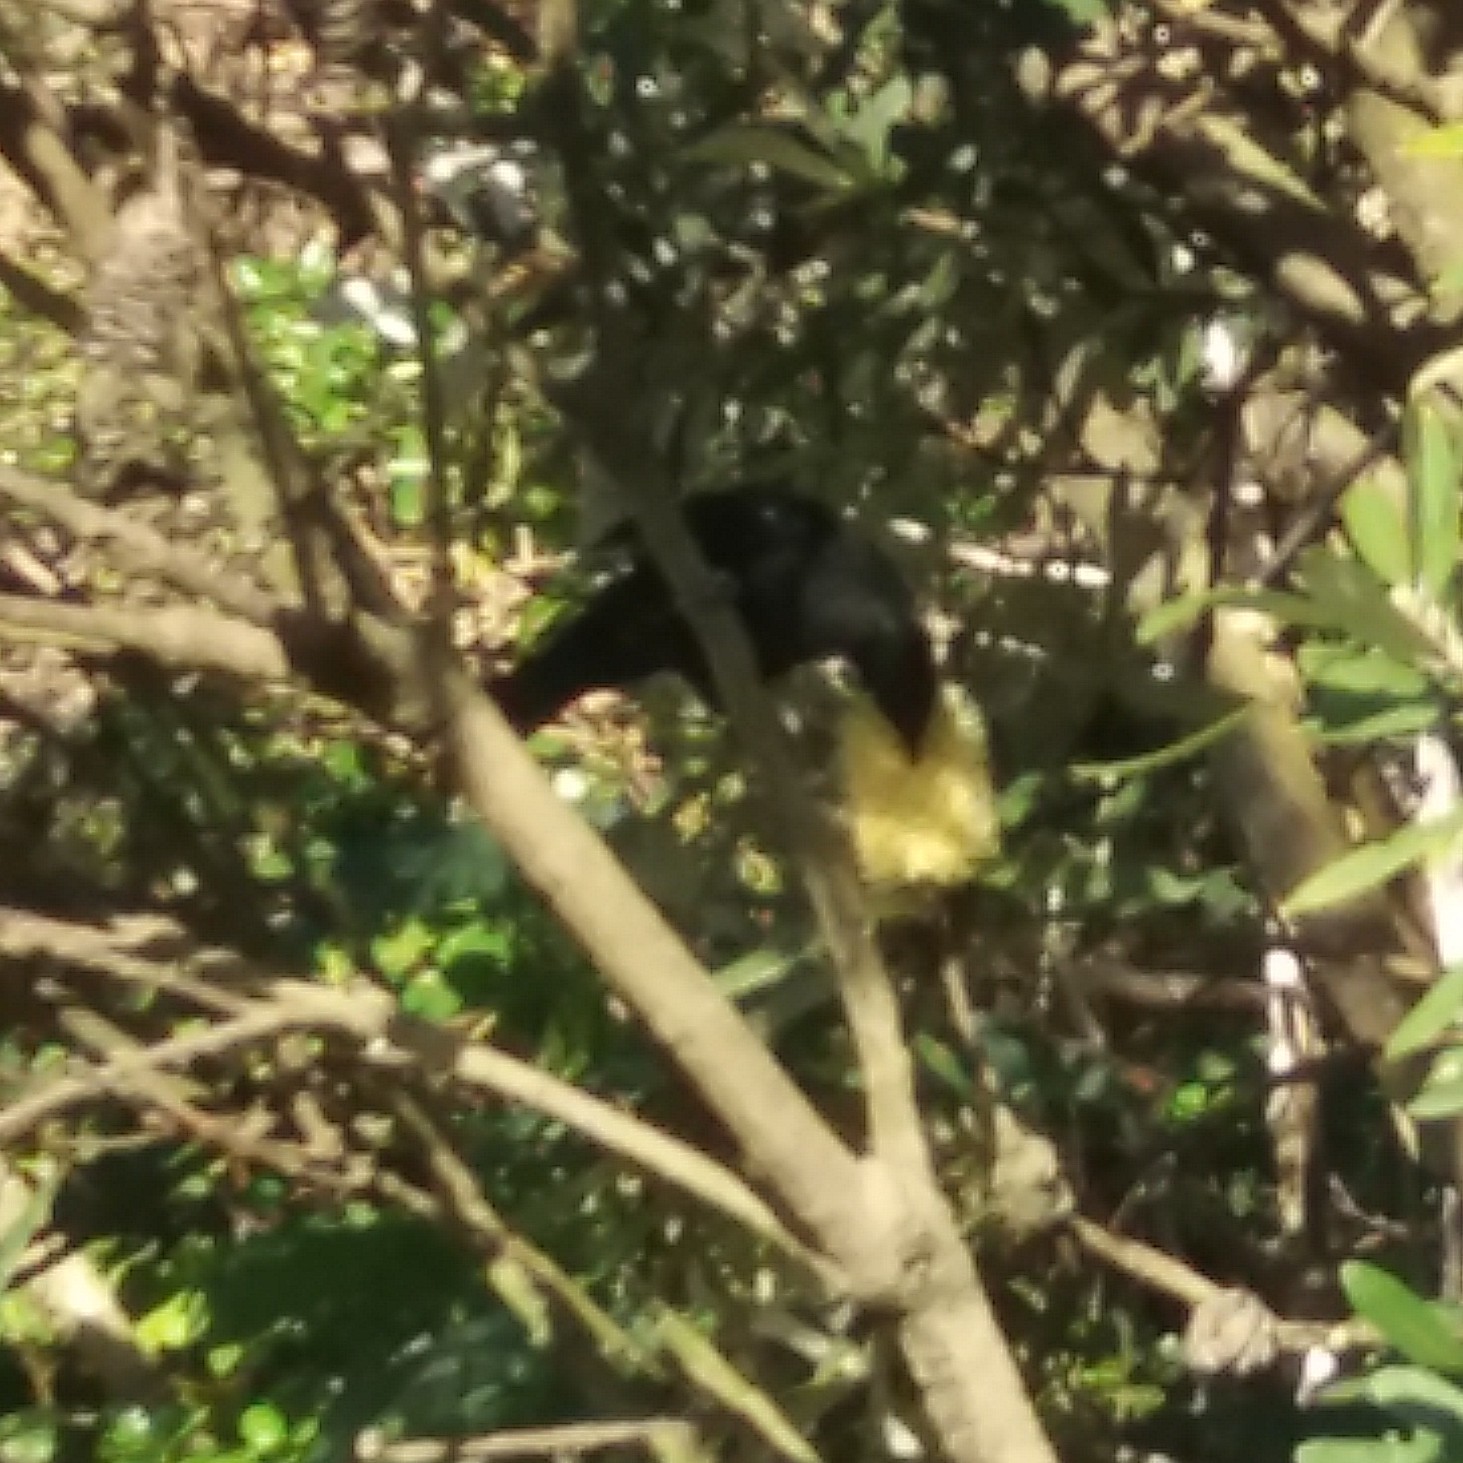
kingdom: Animalia
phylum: Chordata
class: Aves
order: Passeriformes
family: Meliphagidae
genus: Prosthemadera
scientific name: Prosthemadera novaeseelandiae
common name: Tui
